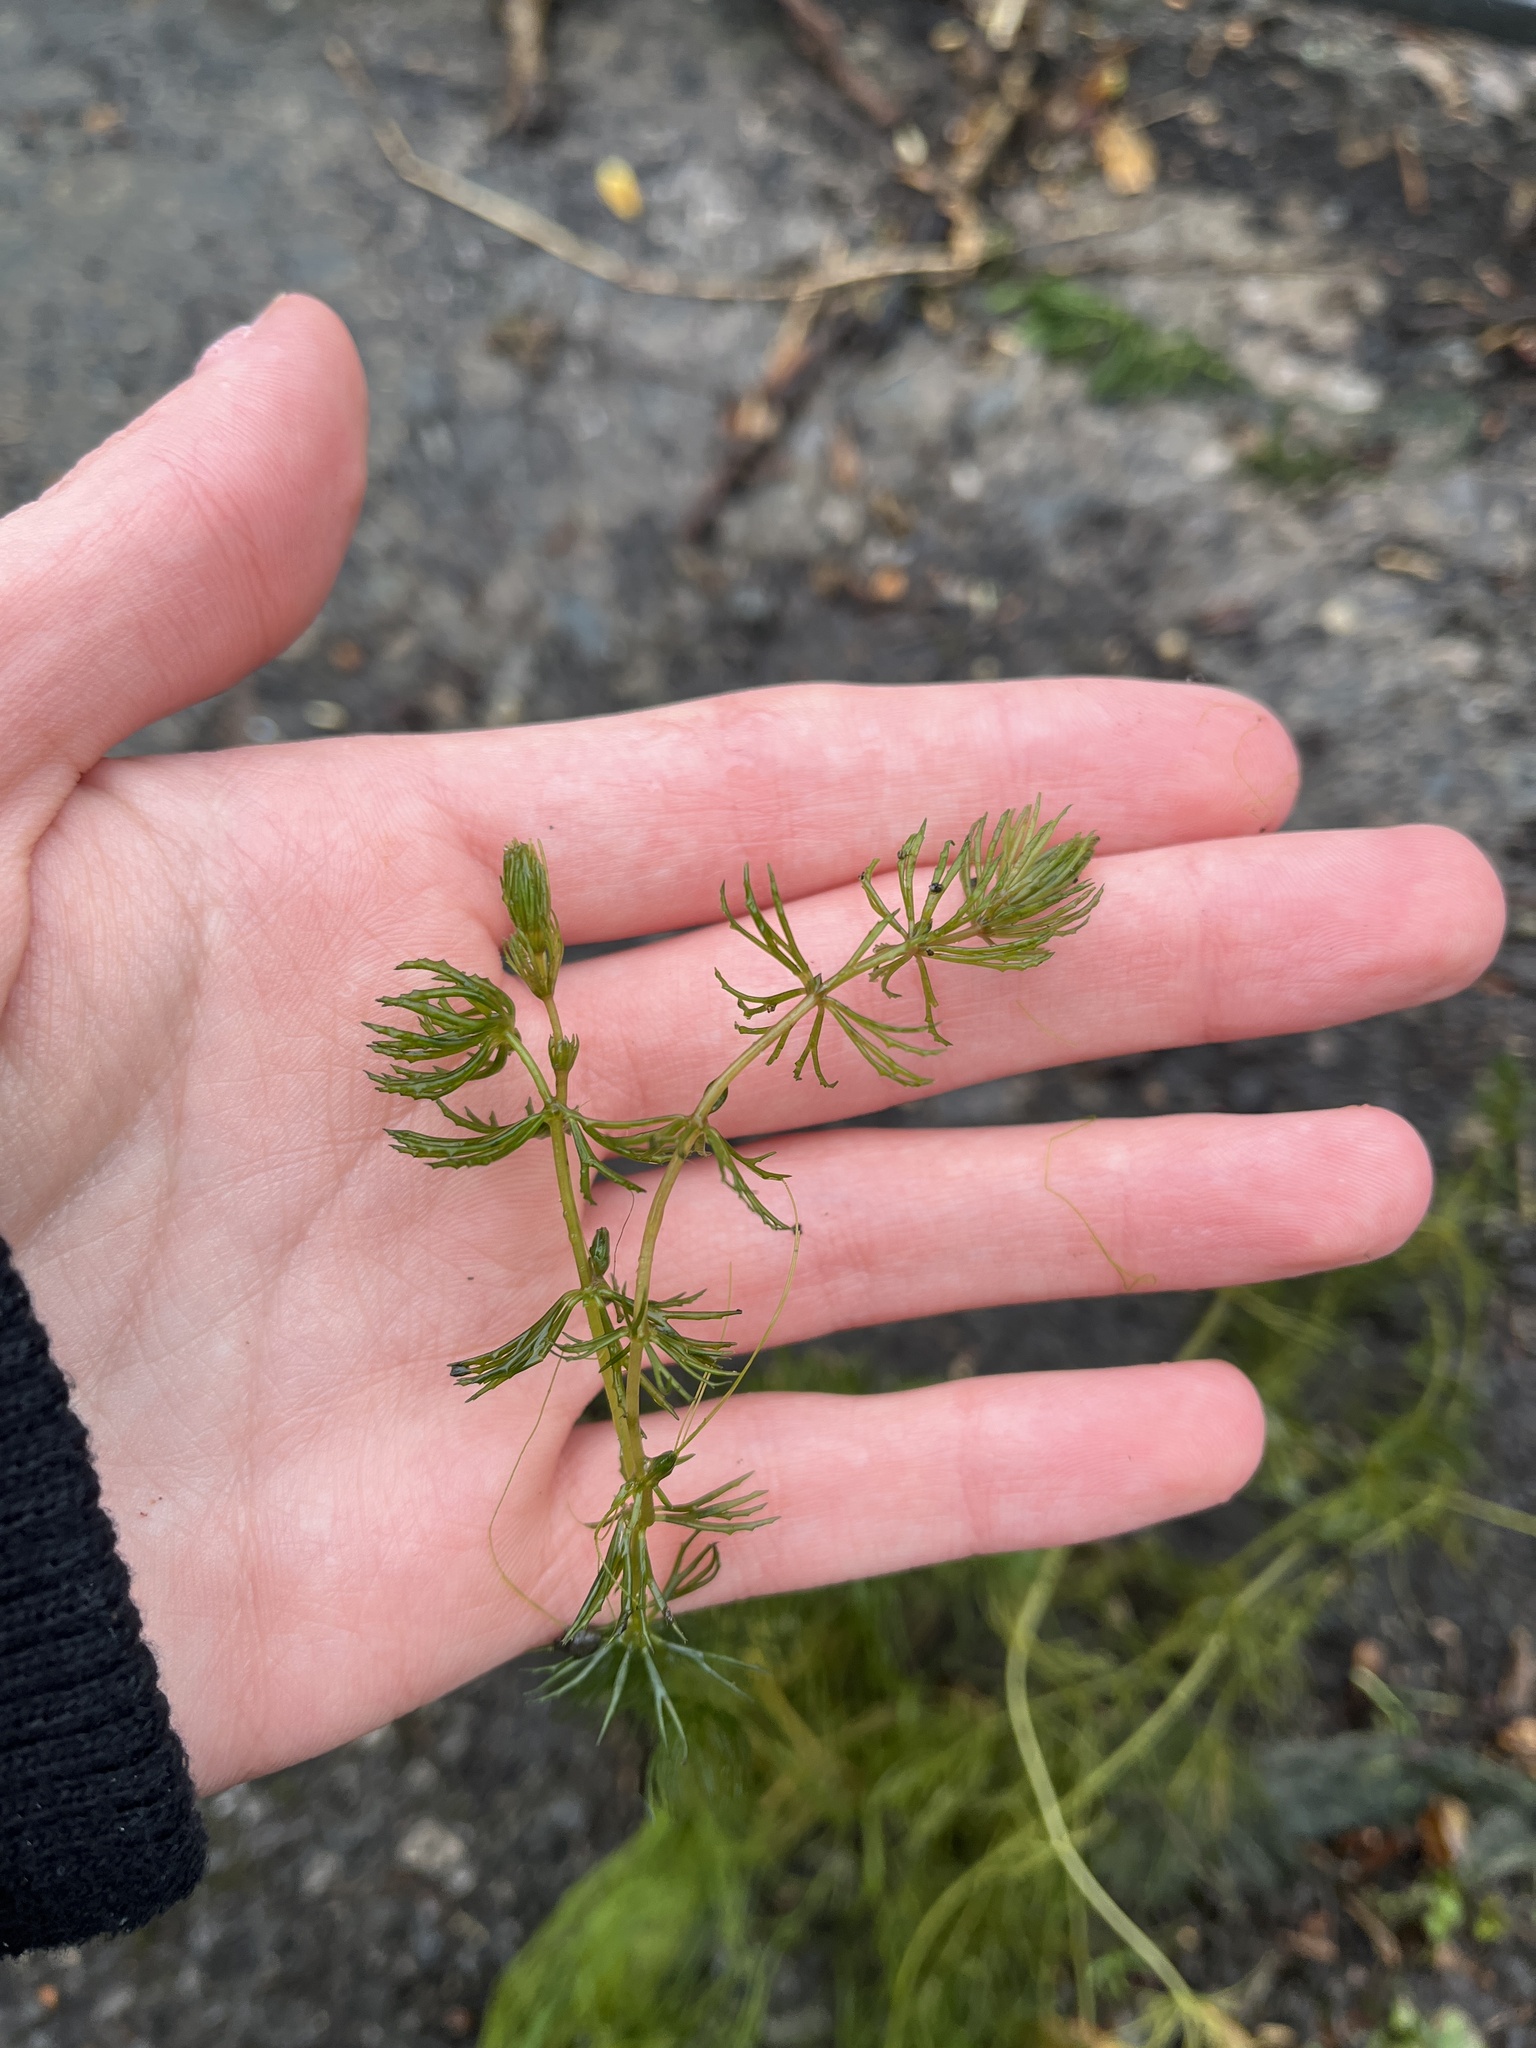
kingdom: Plantae
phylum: Tracheophyta
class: Magnoliopsida
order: Ceratophyllales
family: Ceratophyllaceae
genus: Ceratophyllum
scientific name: Ceratophyllum demersum
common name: Rigid hornwort
